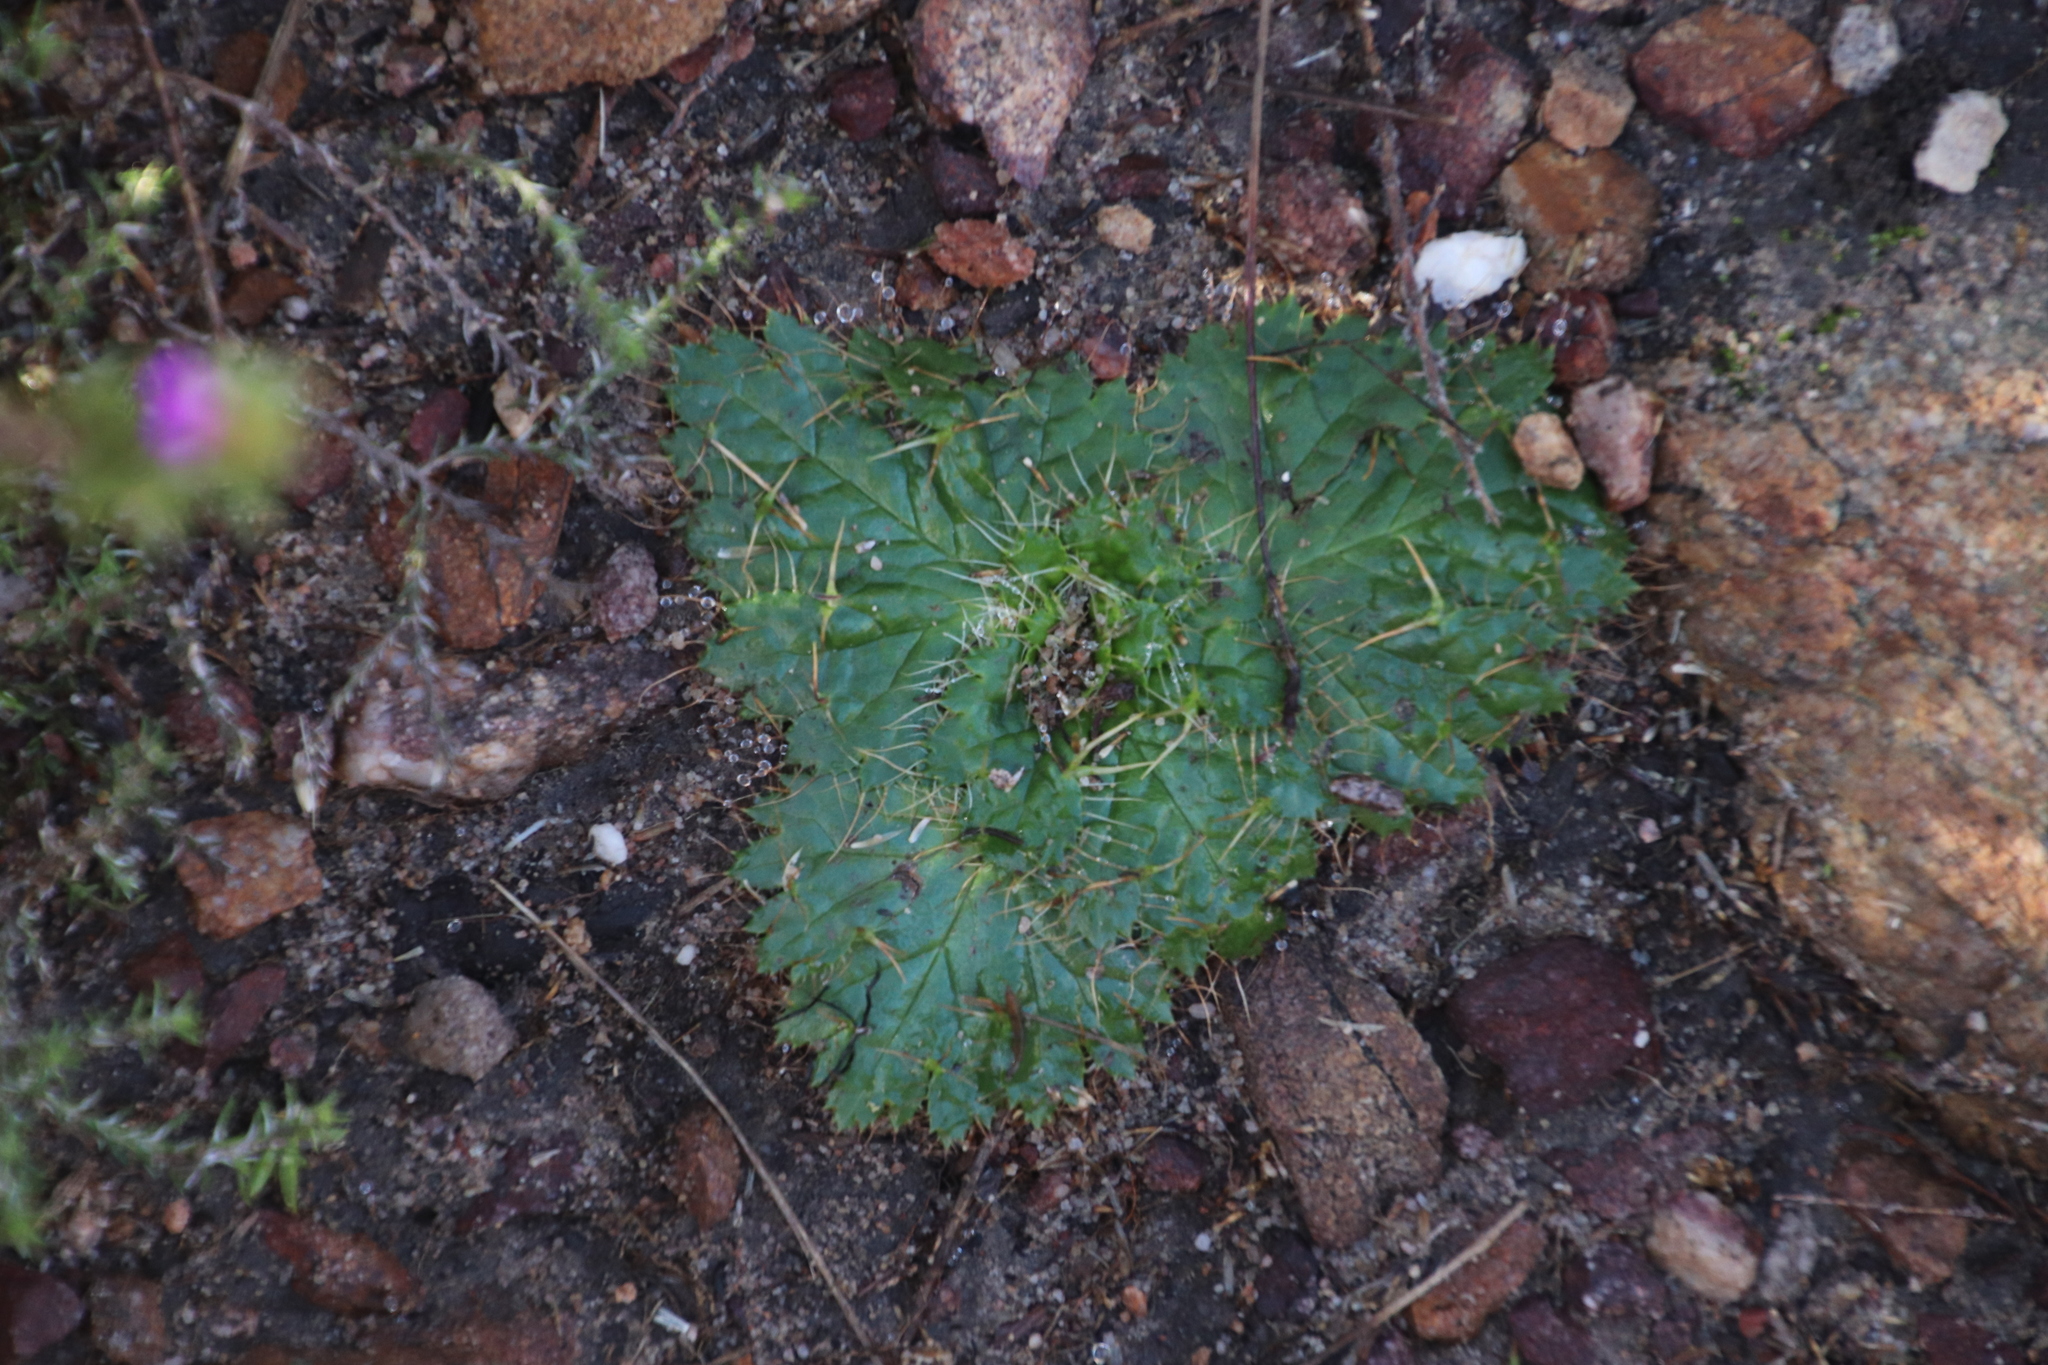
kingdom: Plantae
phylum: Tracheophyta
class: Magnoliopsida
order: Apiales
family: Apiaceae
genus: Arctopus
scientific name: Arctopus echinatus
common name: Platdoring
